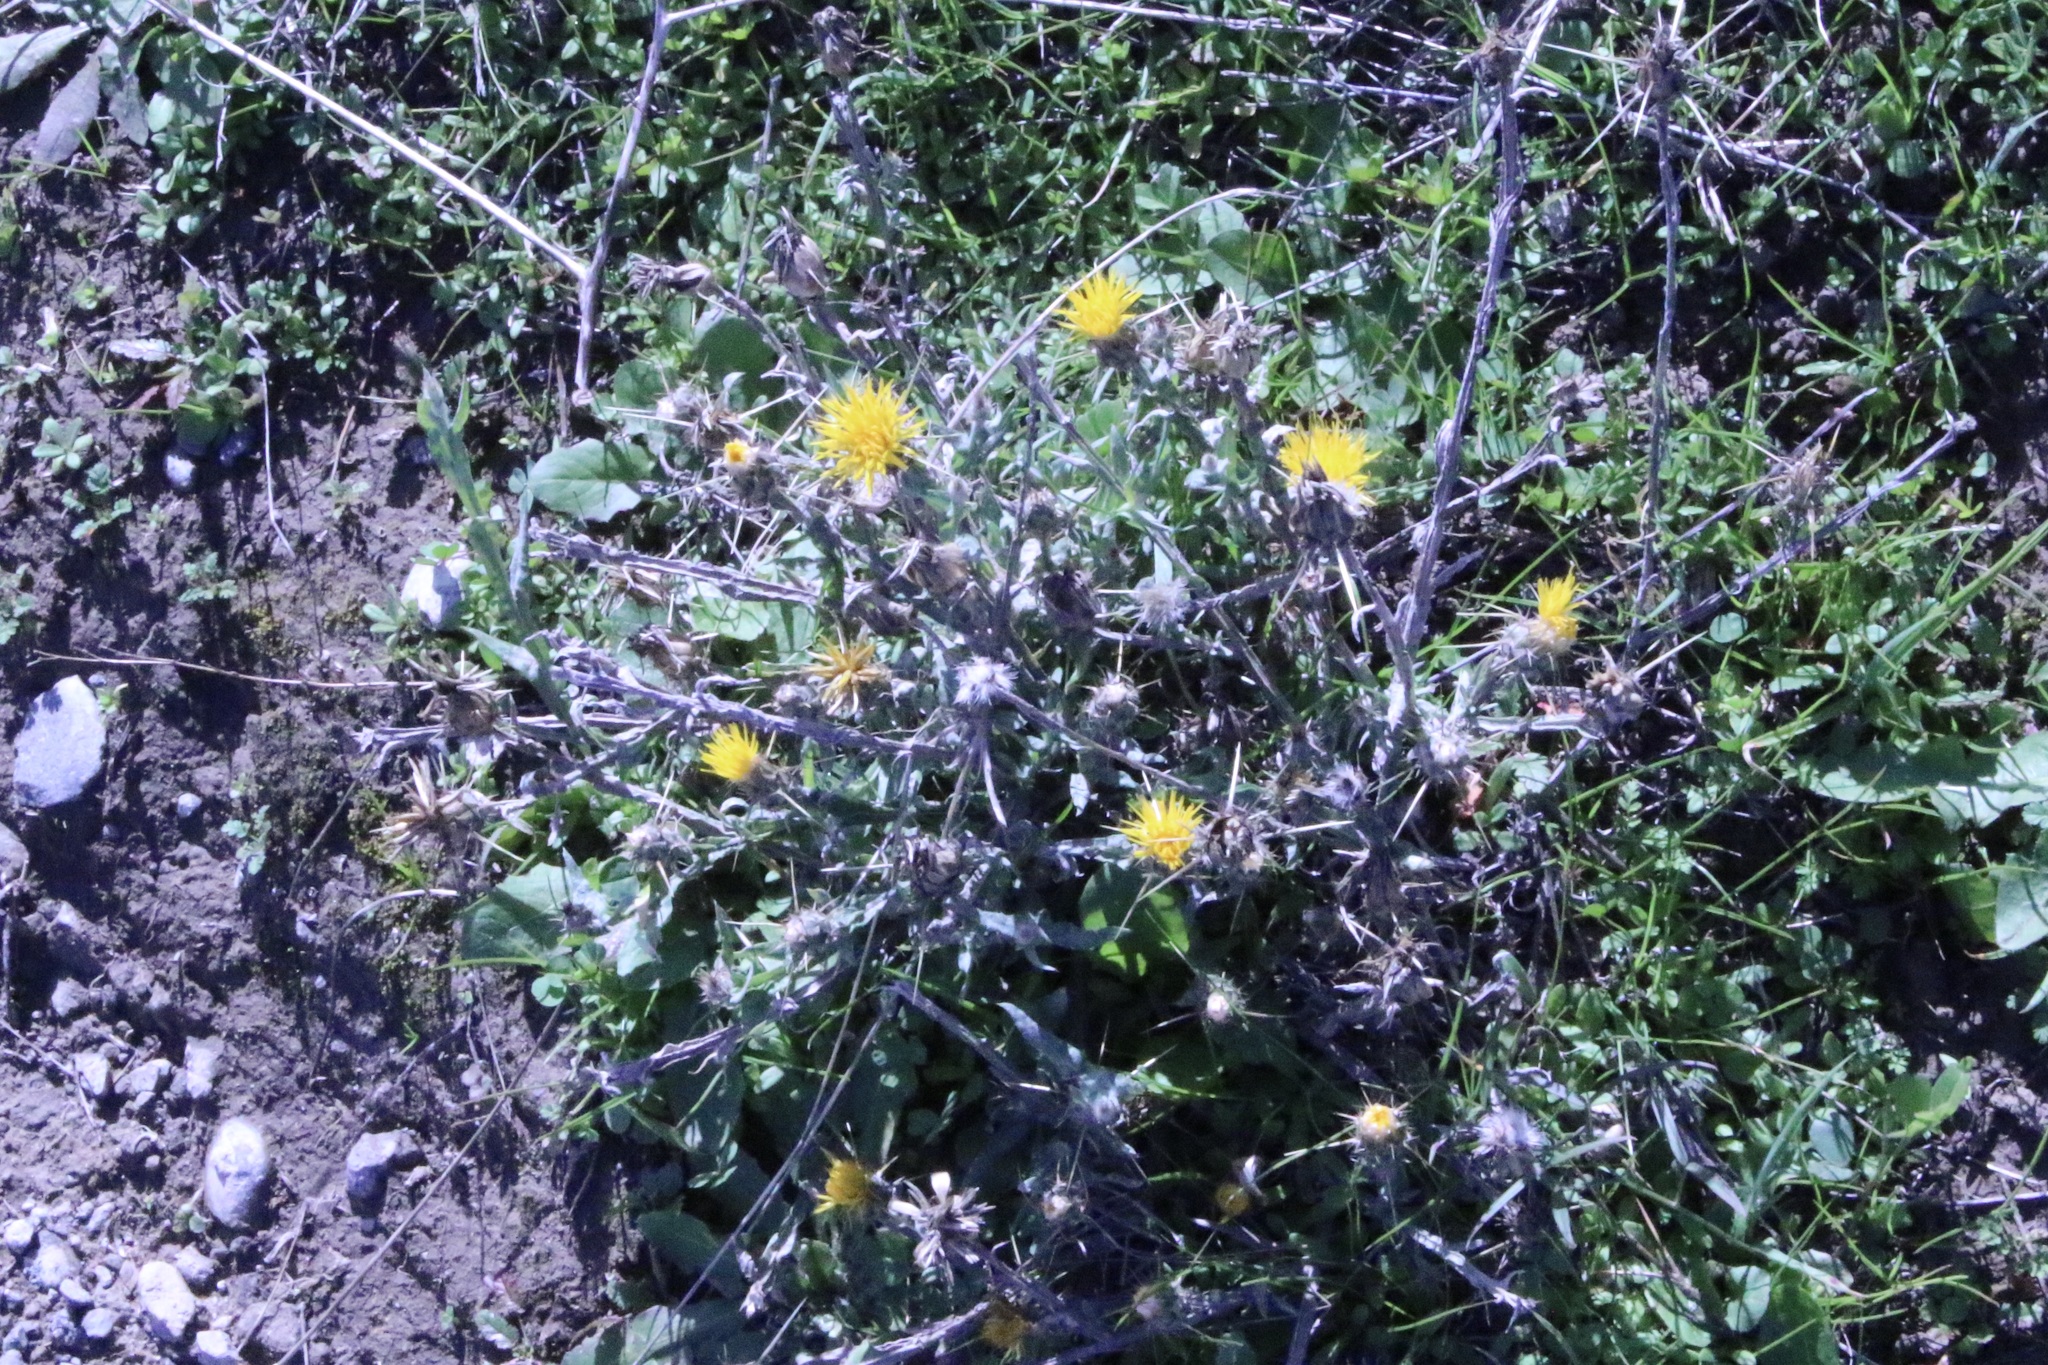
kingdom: Plantae
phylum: Tracheophyta
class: Magnoliopsida
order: Asterales
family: Asteraceae
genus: Centaurea
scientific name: Centaurea solstitialis
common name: Yellow star-thistle
